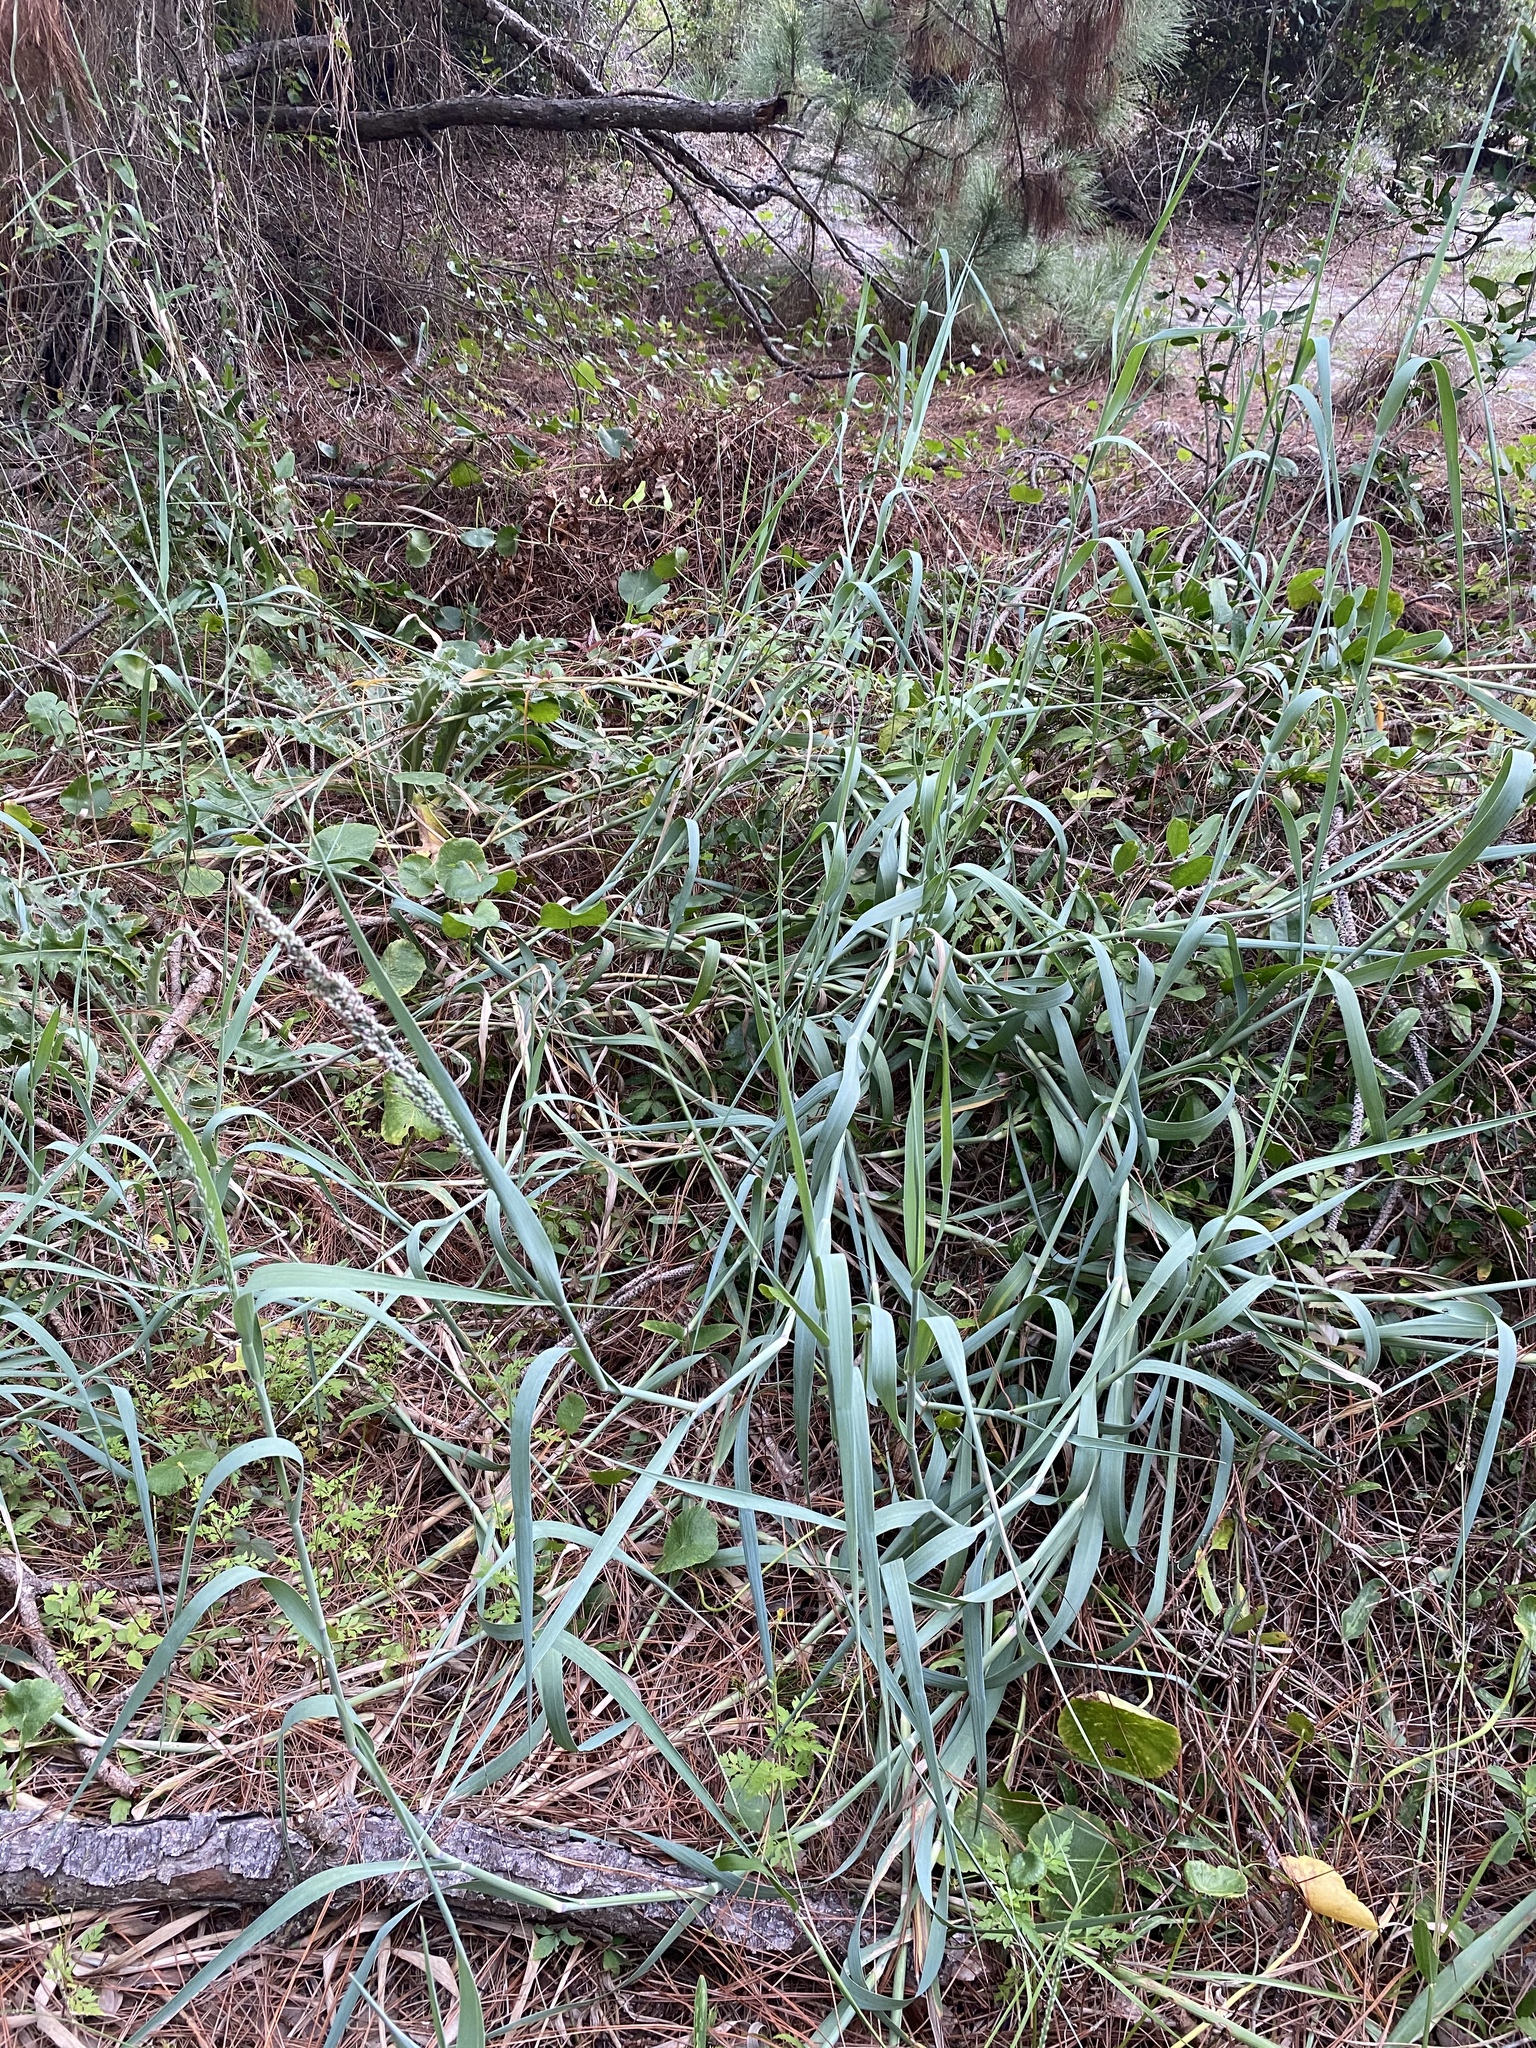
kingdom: Plantae
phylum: Tracheophyta
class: Liliopsida
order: Poales
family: Poaceae
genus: Panicum
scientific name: Panicum amarum
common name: Bitter panicum
